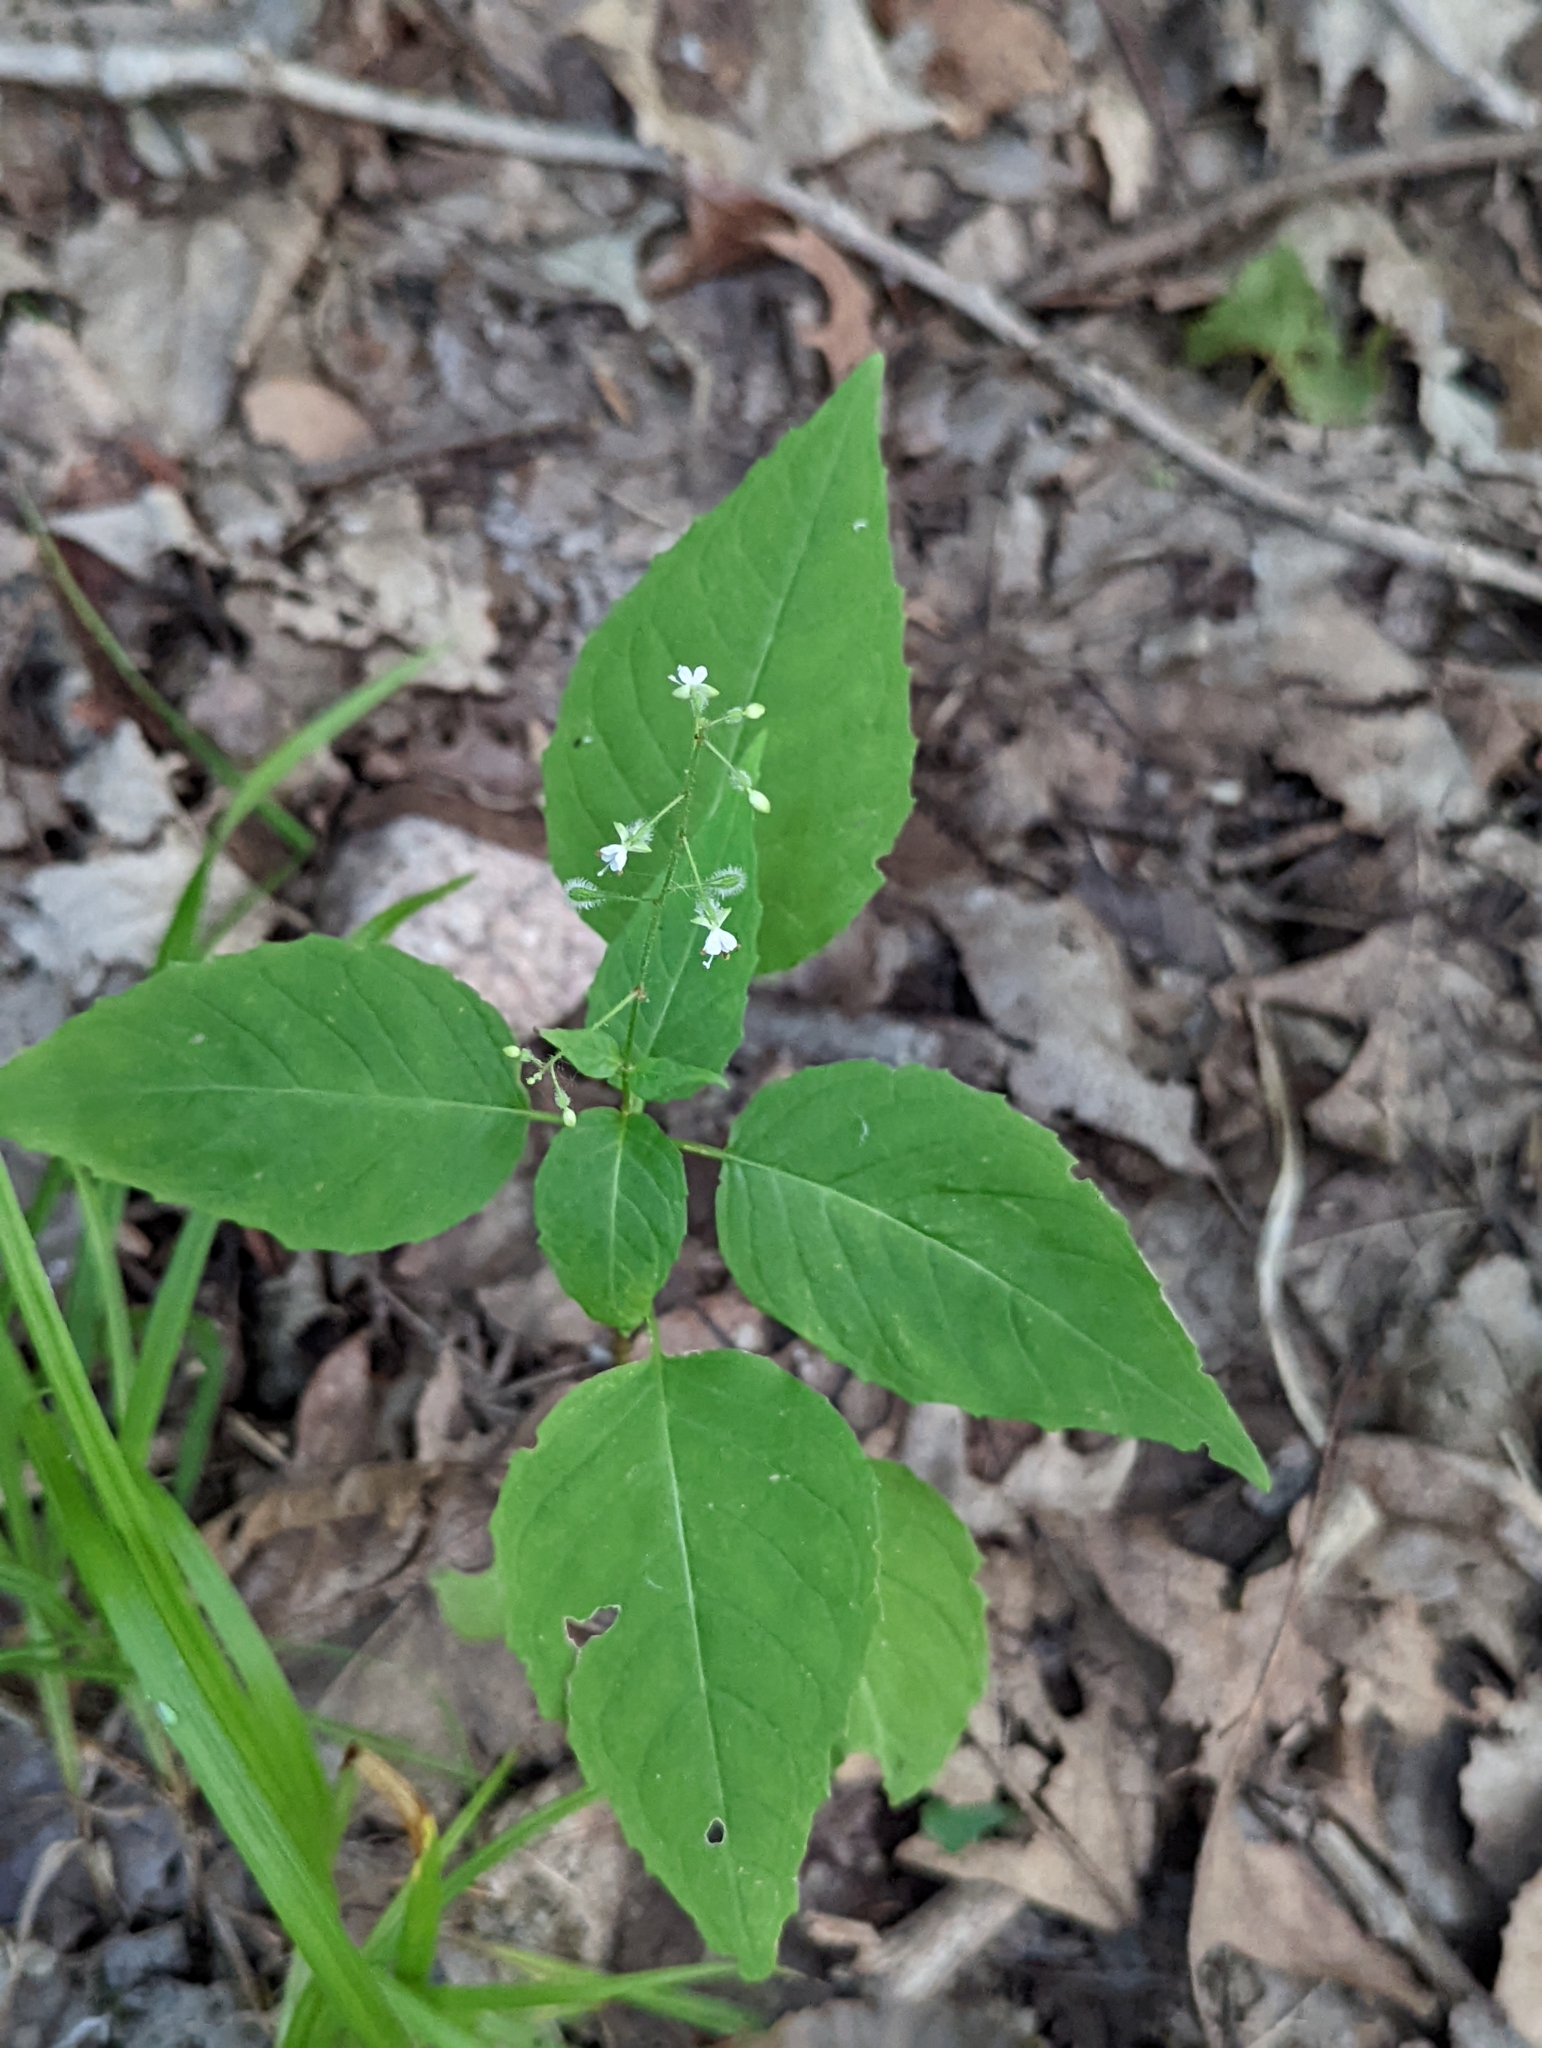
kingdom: Plantae
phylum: Tracheophyta
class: Magnoliopsida
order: Myrtales
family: Onagraceae
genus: Circaea
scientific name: Circaea canadensis
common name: Broad-leaved enchanter's nightshade
